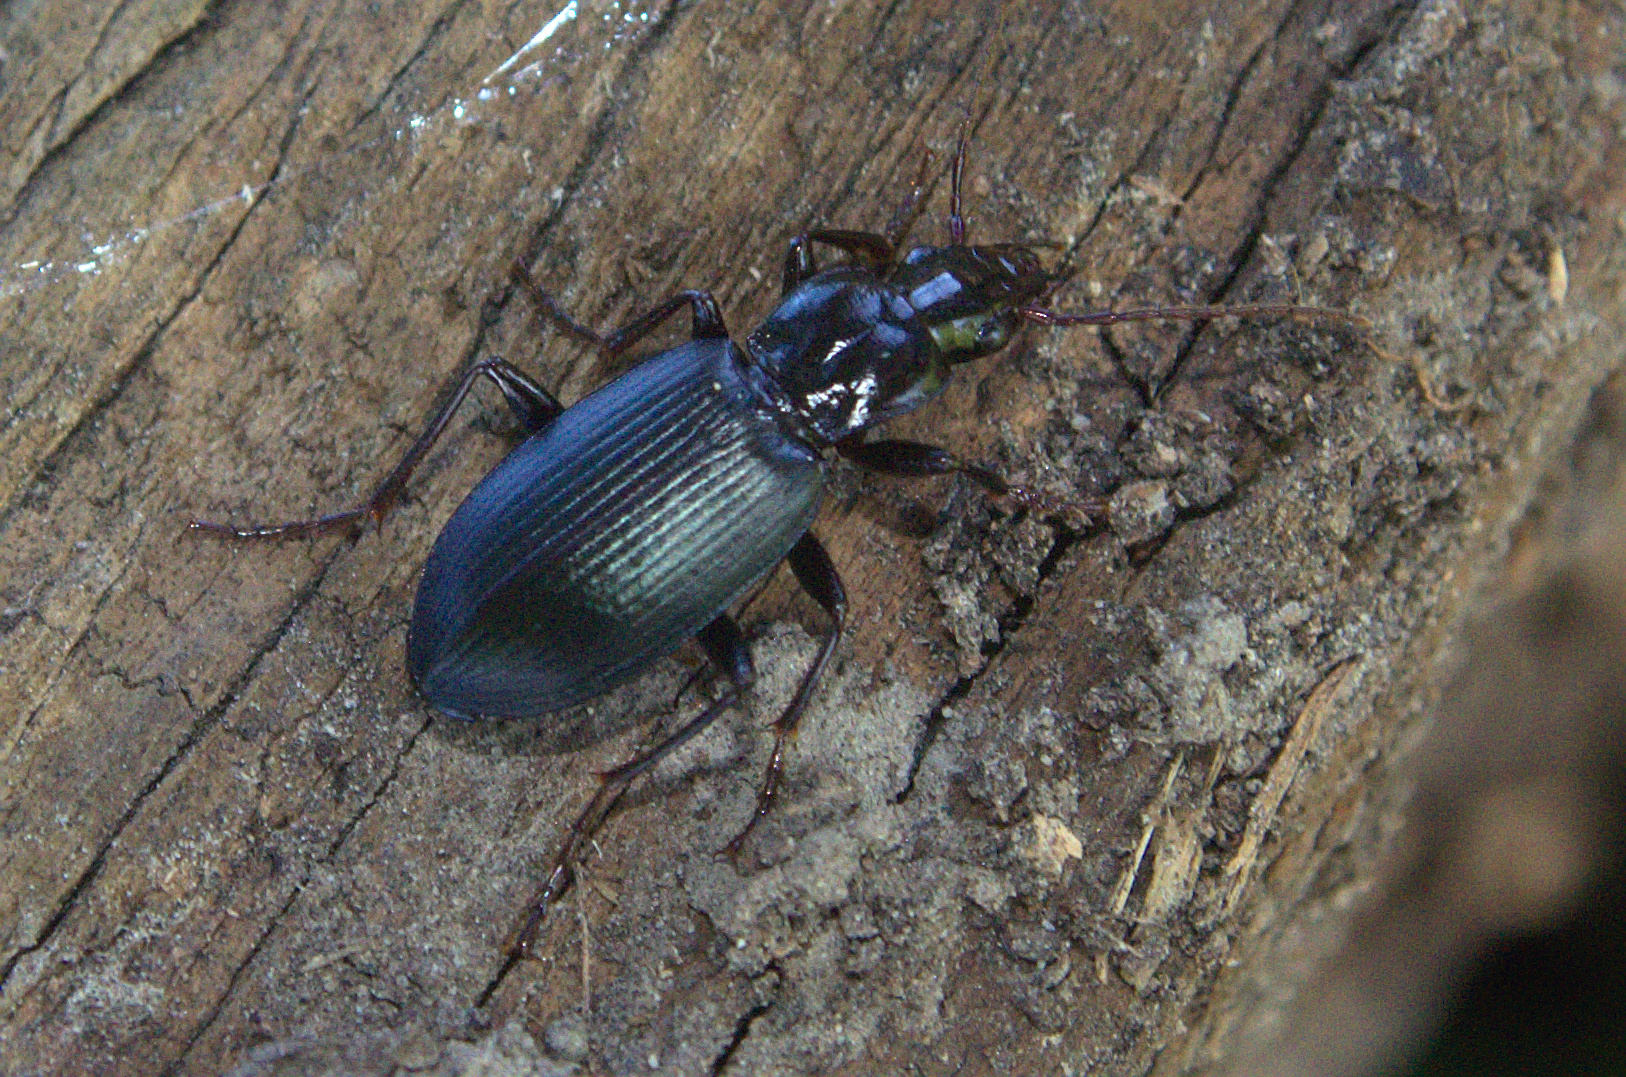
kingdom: Animalia
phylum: Arthropoda
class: Insecta
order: Coleoptera
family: Carabidae
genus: Laemostenus
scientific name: Laemostenus complanatus
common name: Cosmopolitan ground beetle
